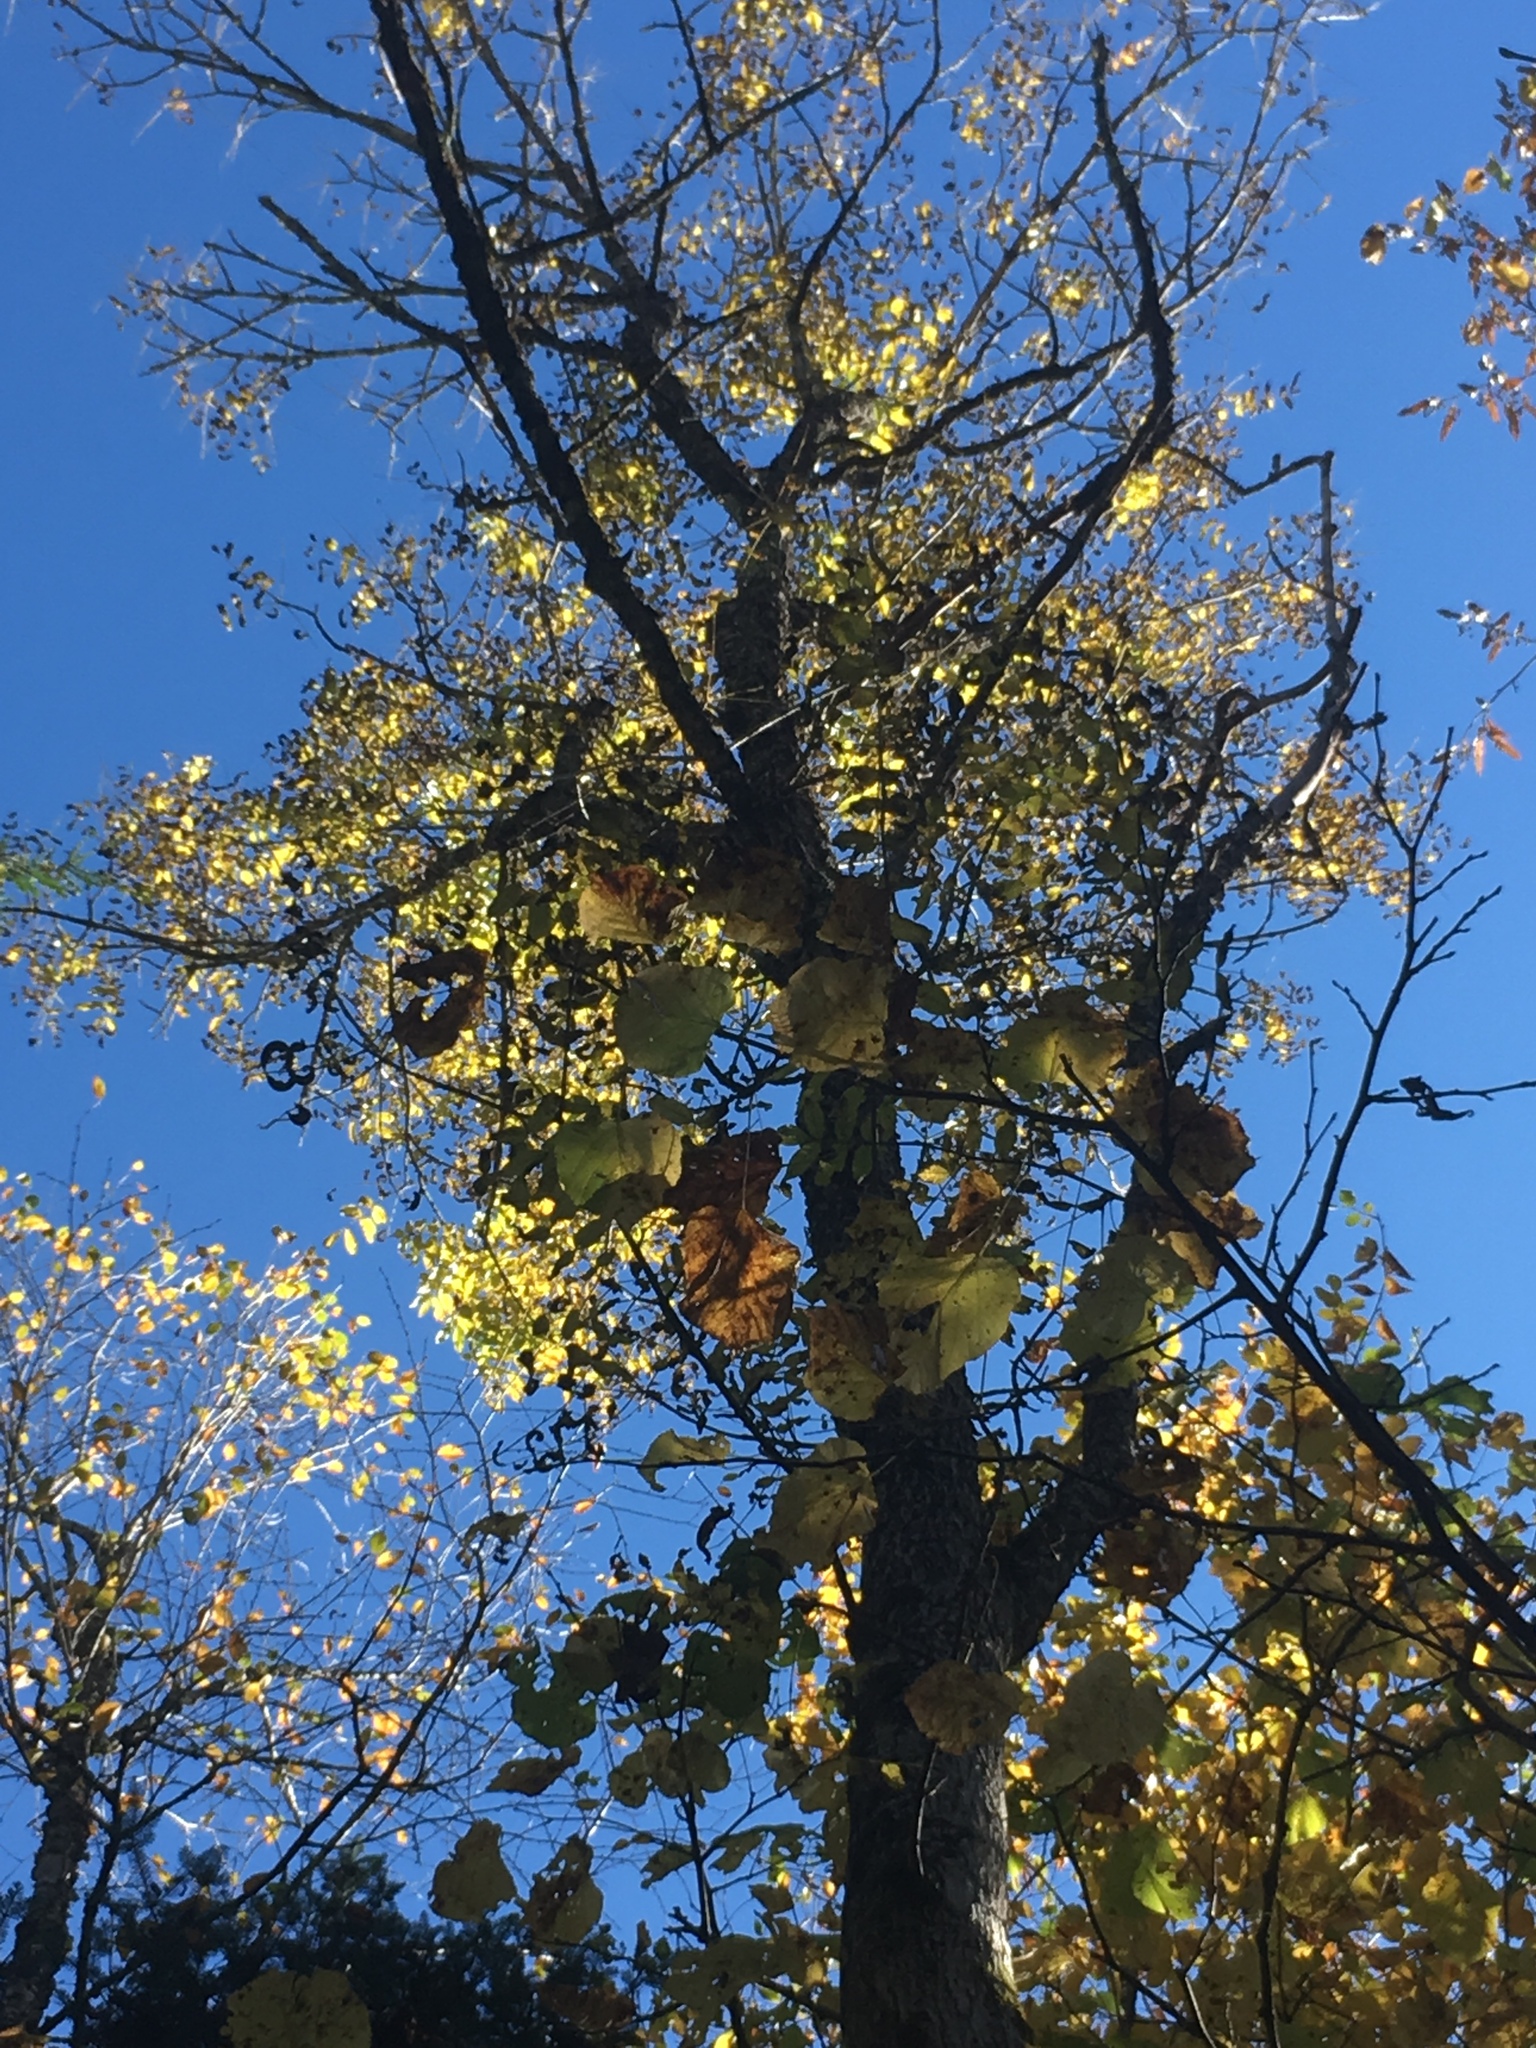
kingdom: Plantae
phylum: Tracheophyta
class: Magnoliopsida
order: Lamiales
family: Oleaceae
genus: Fraxinus
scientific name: Fraxinus nigra
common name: Black ash
